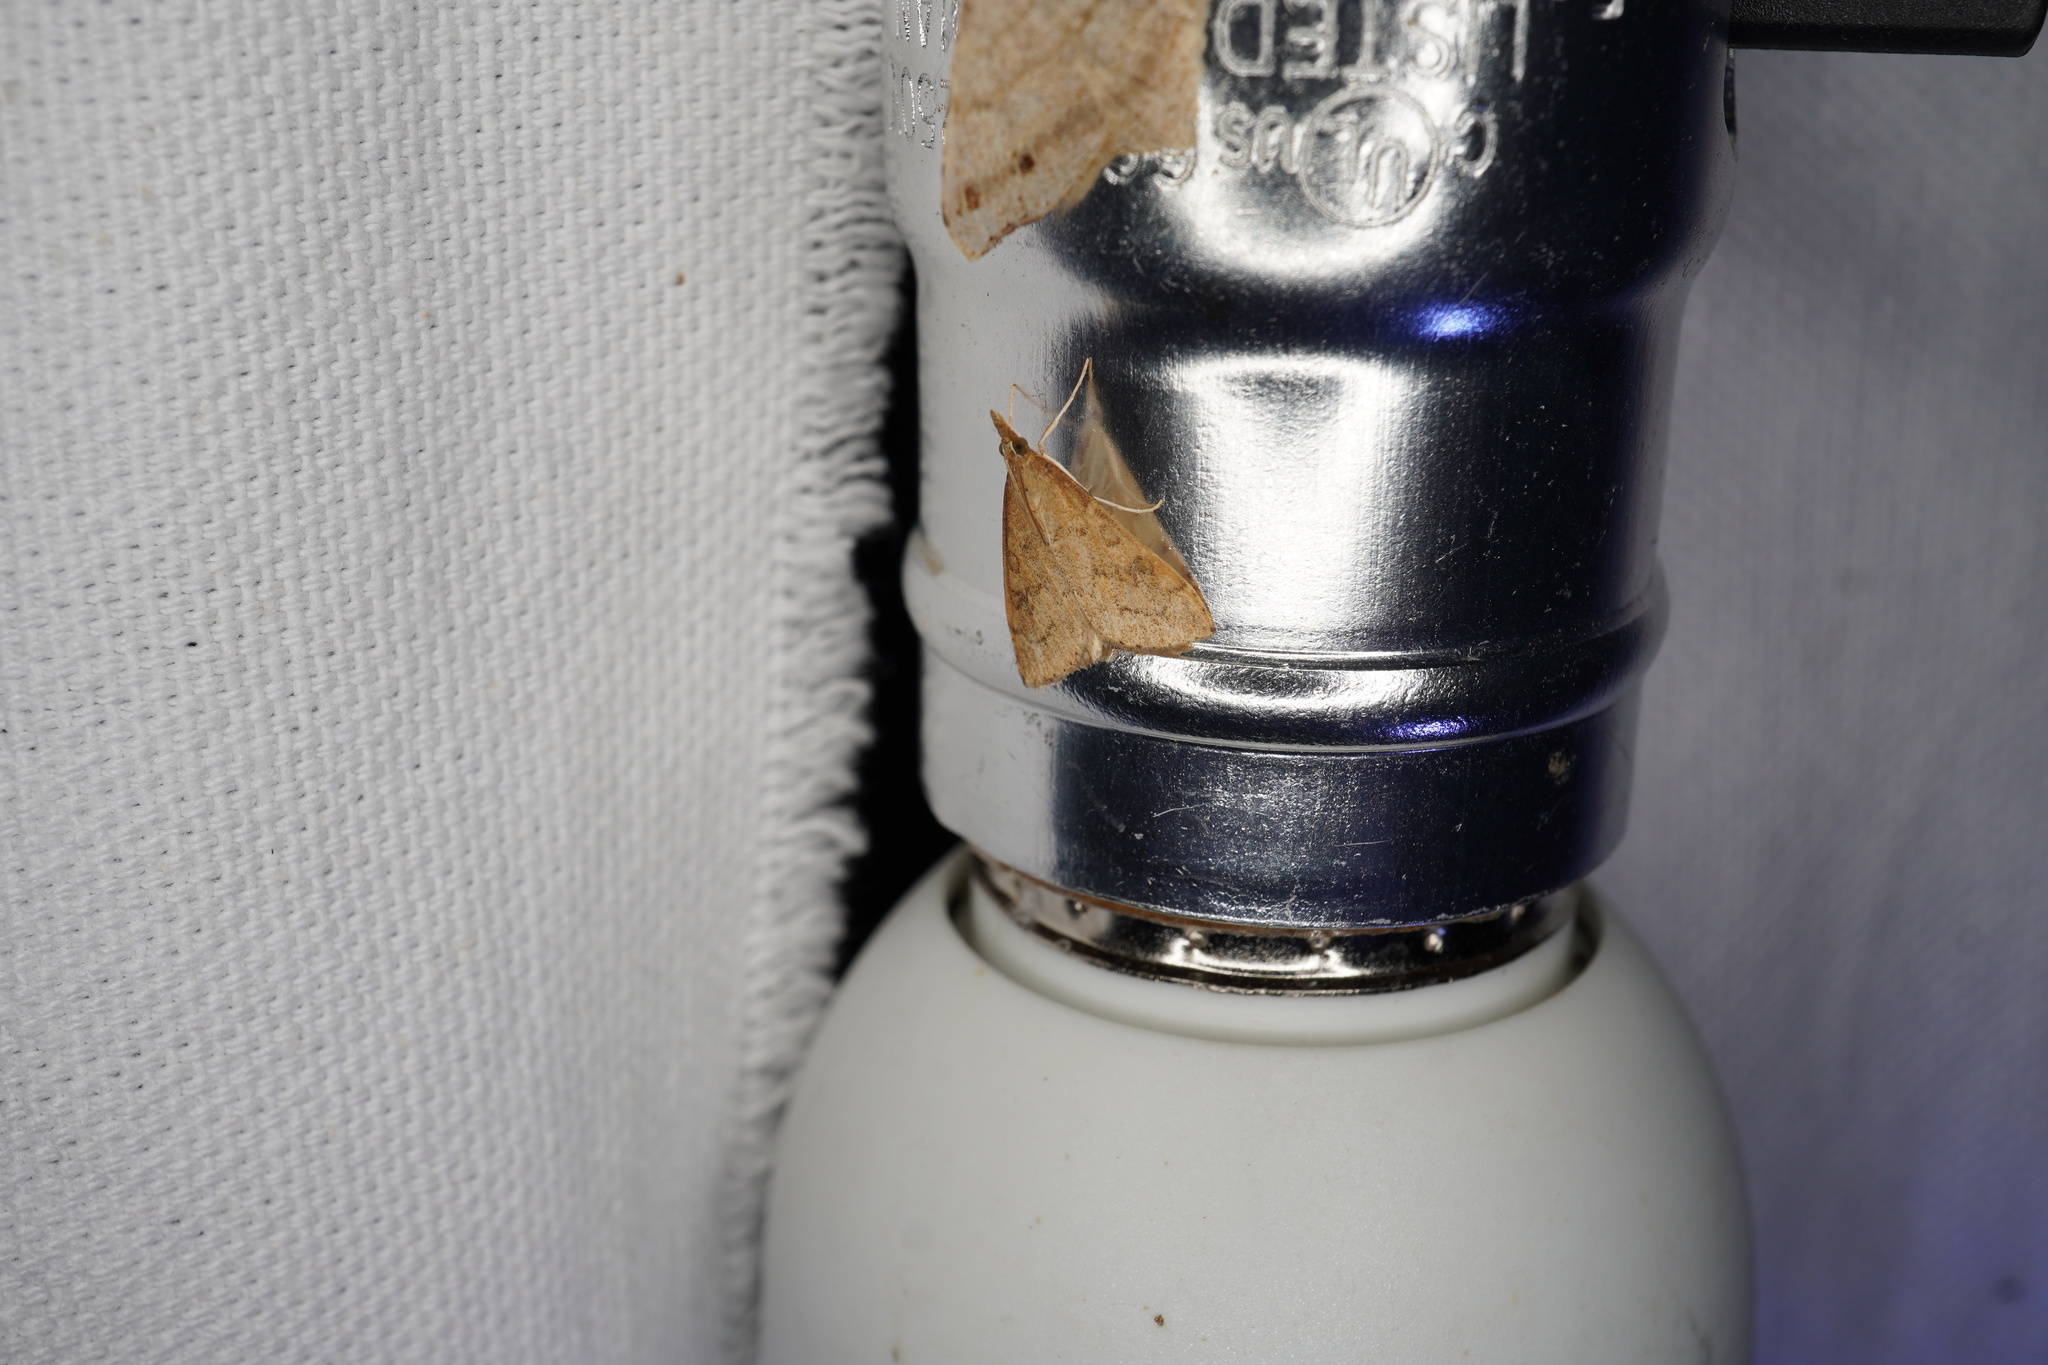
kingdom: Animalia
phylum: Arthropoda
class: Insecta
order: Lepidoptera
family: Crambidae
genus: Udea
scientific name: Udea rubigalis
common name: Celery leaftier moth
